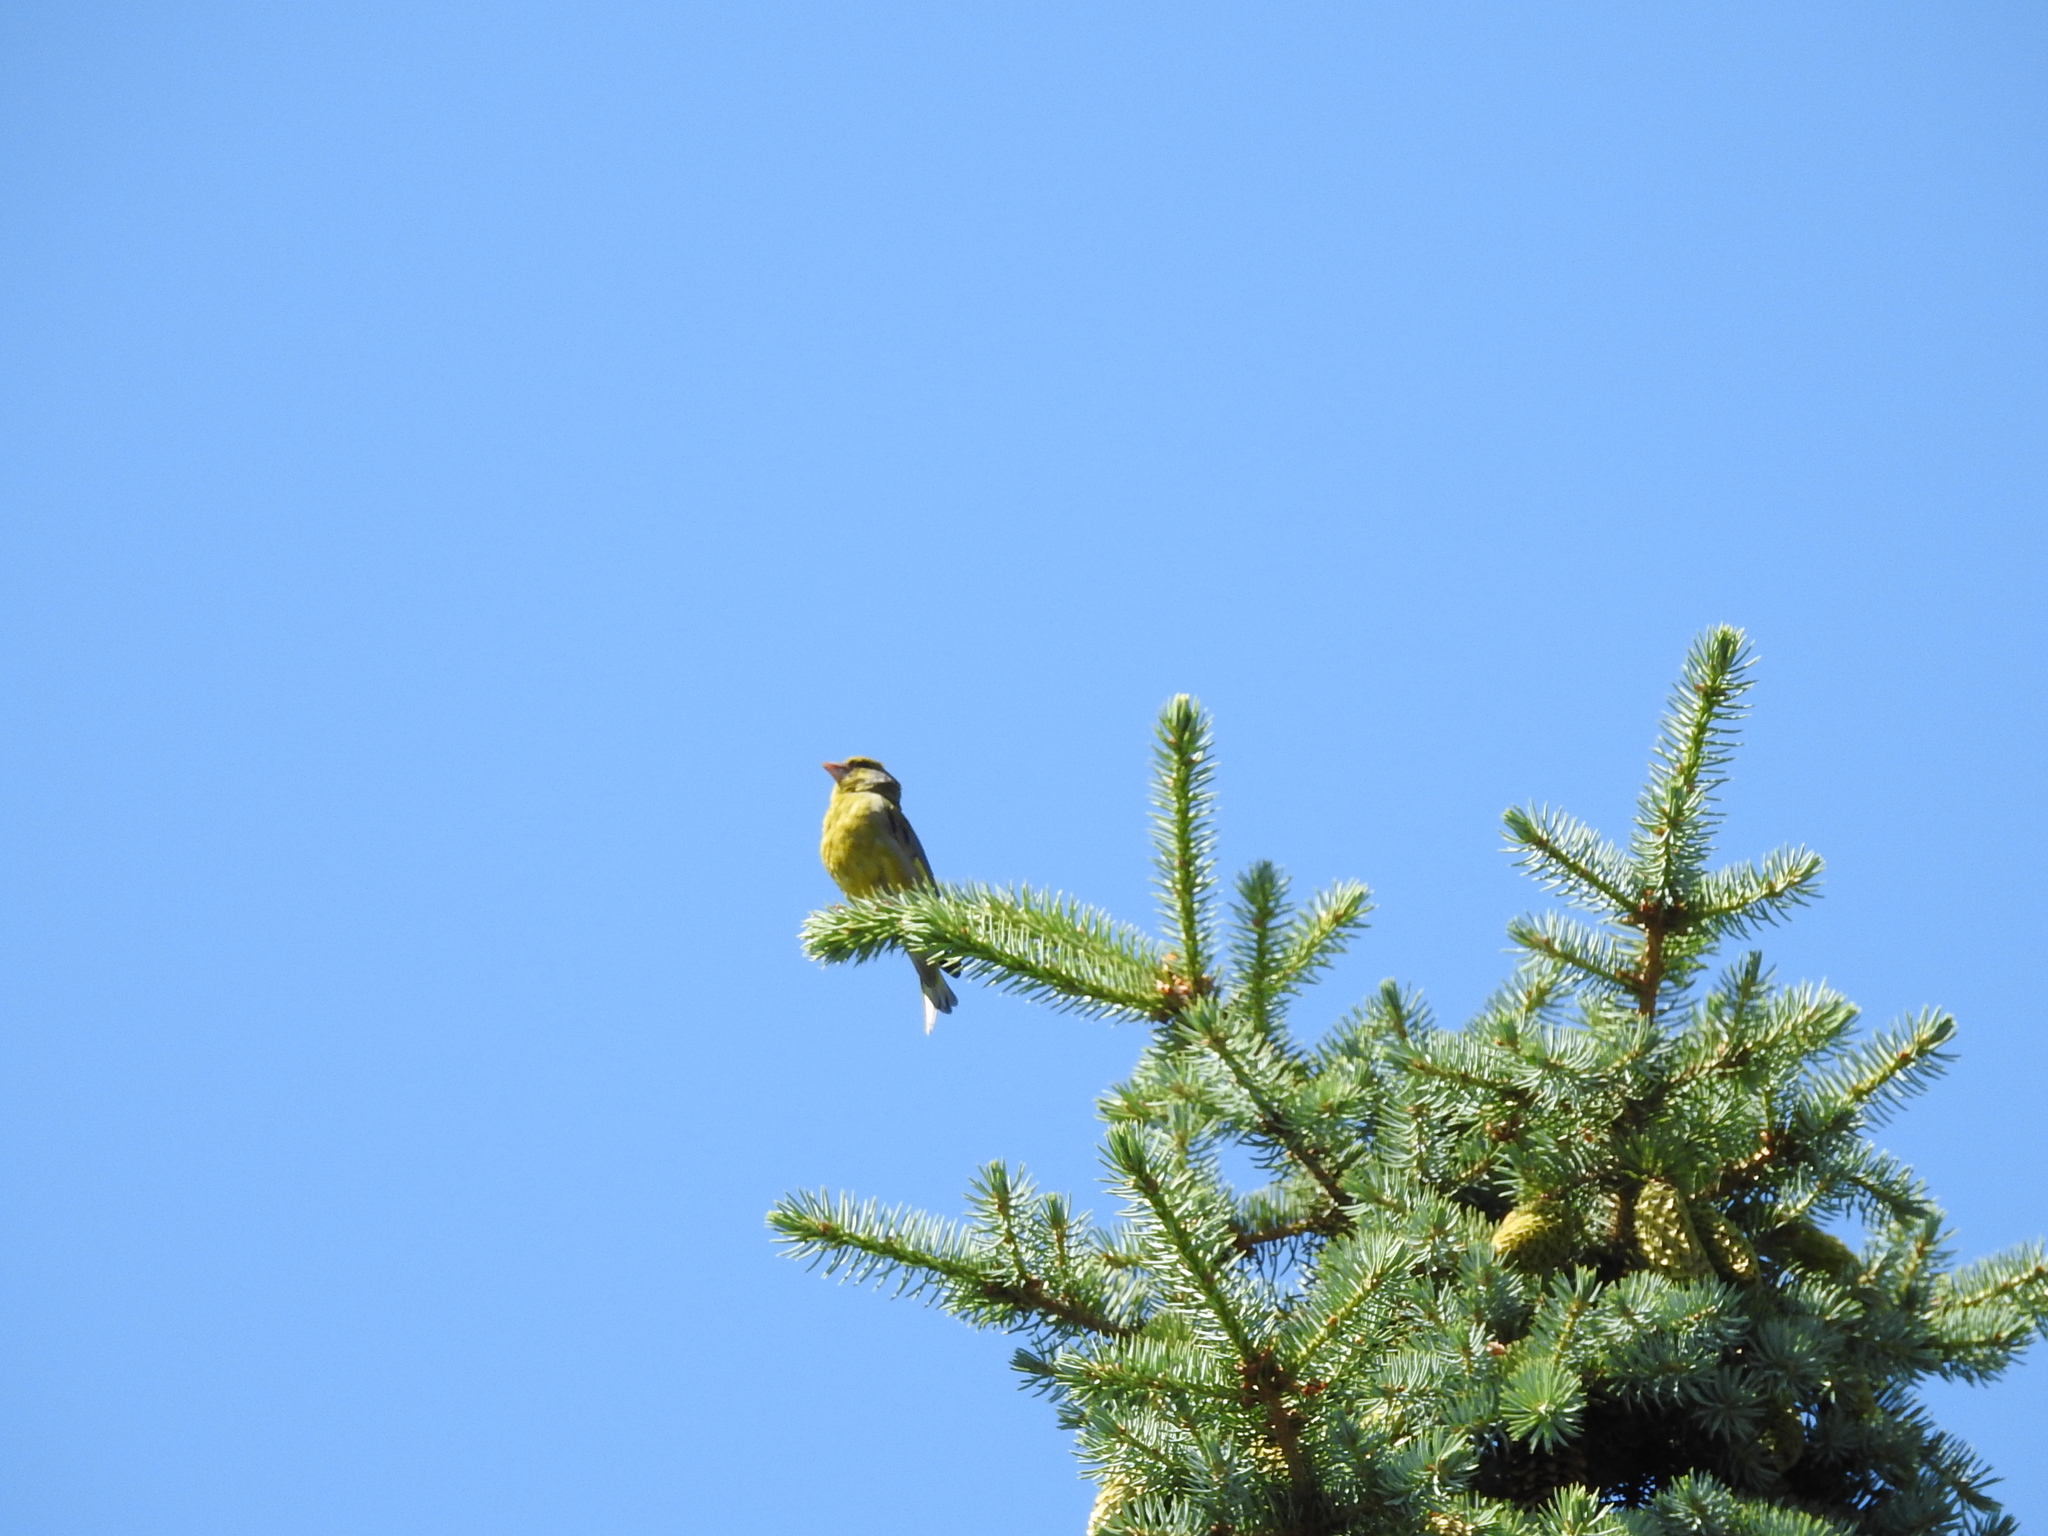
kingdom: Plantae
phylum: Tracheophyta
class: Liliopsida
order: Poales
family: Poaceae
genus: Chloris
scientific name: Chloris chloris
